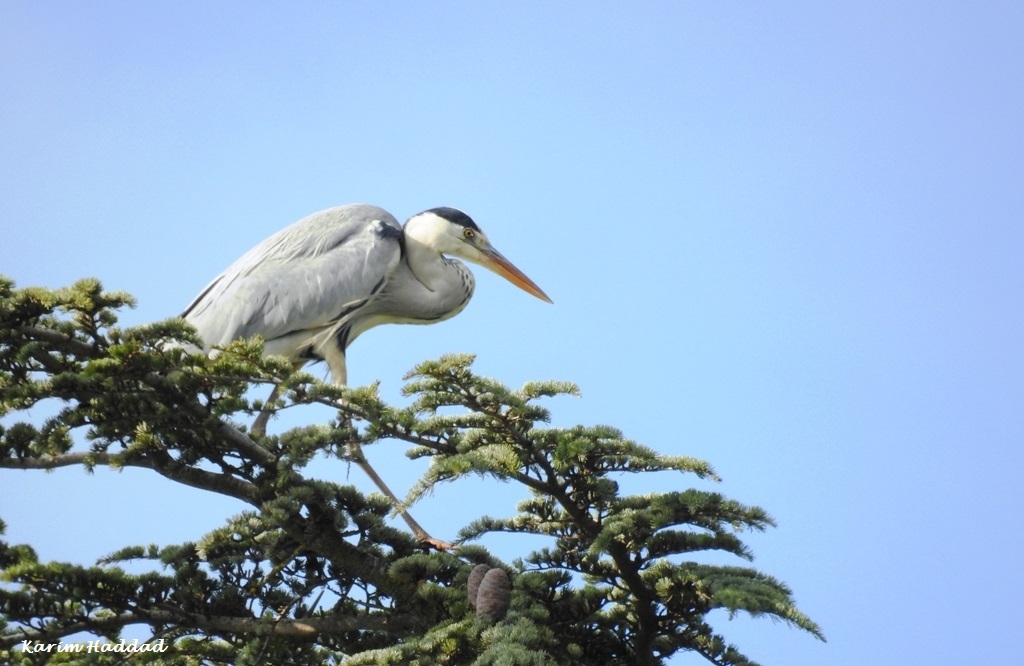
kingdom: Animalia
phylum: Chordata
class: Aves
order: Pelecaniformes
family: Ardeidae
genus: Ardea
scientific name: Ardea cinerea
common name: Grey heron
